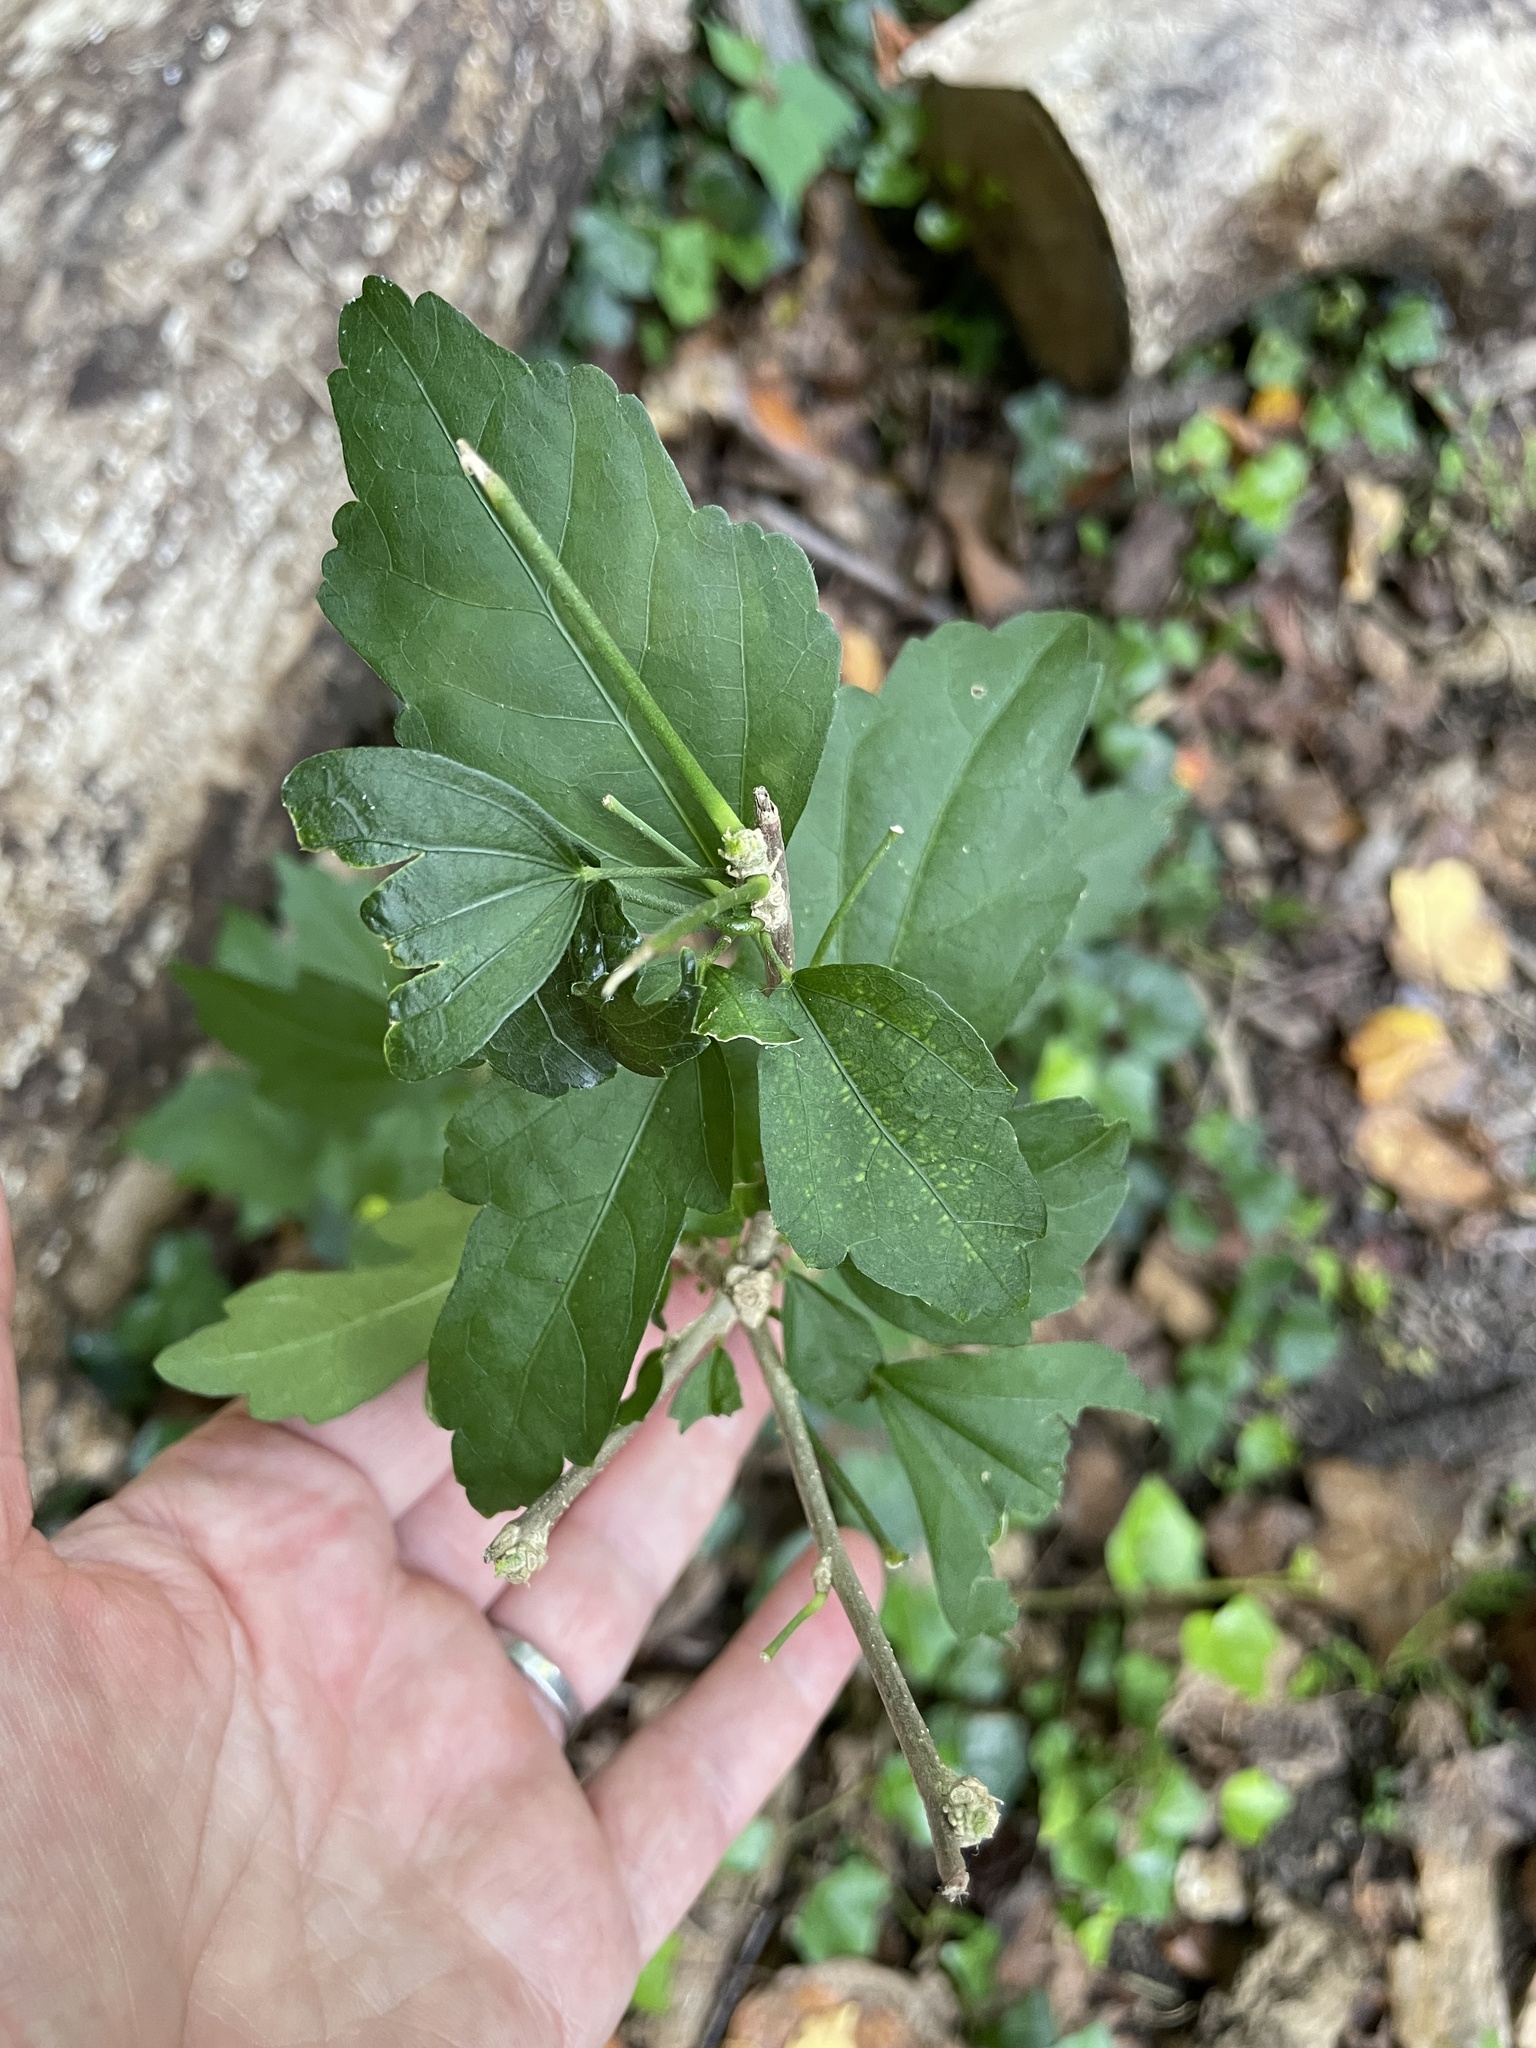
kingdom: Plantae
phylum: Tracheophyta
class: Magnoliopsida
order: Malvales
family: Malvaceae
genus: Hibiscus
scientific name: Hibiscus syriacus
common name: Syrian ketmia
